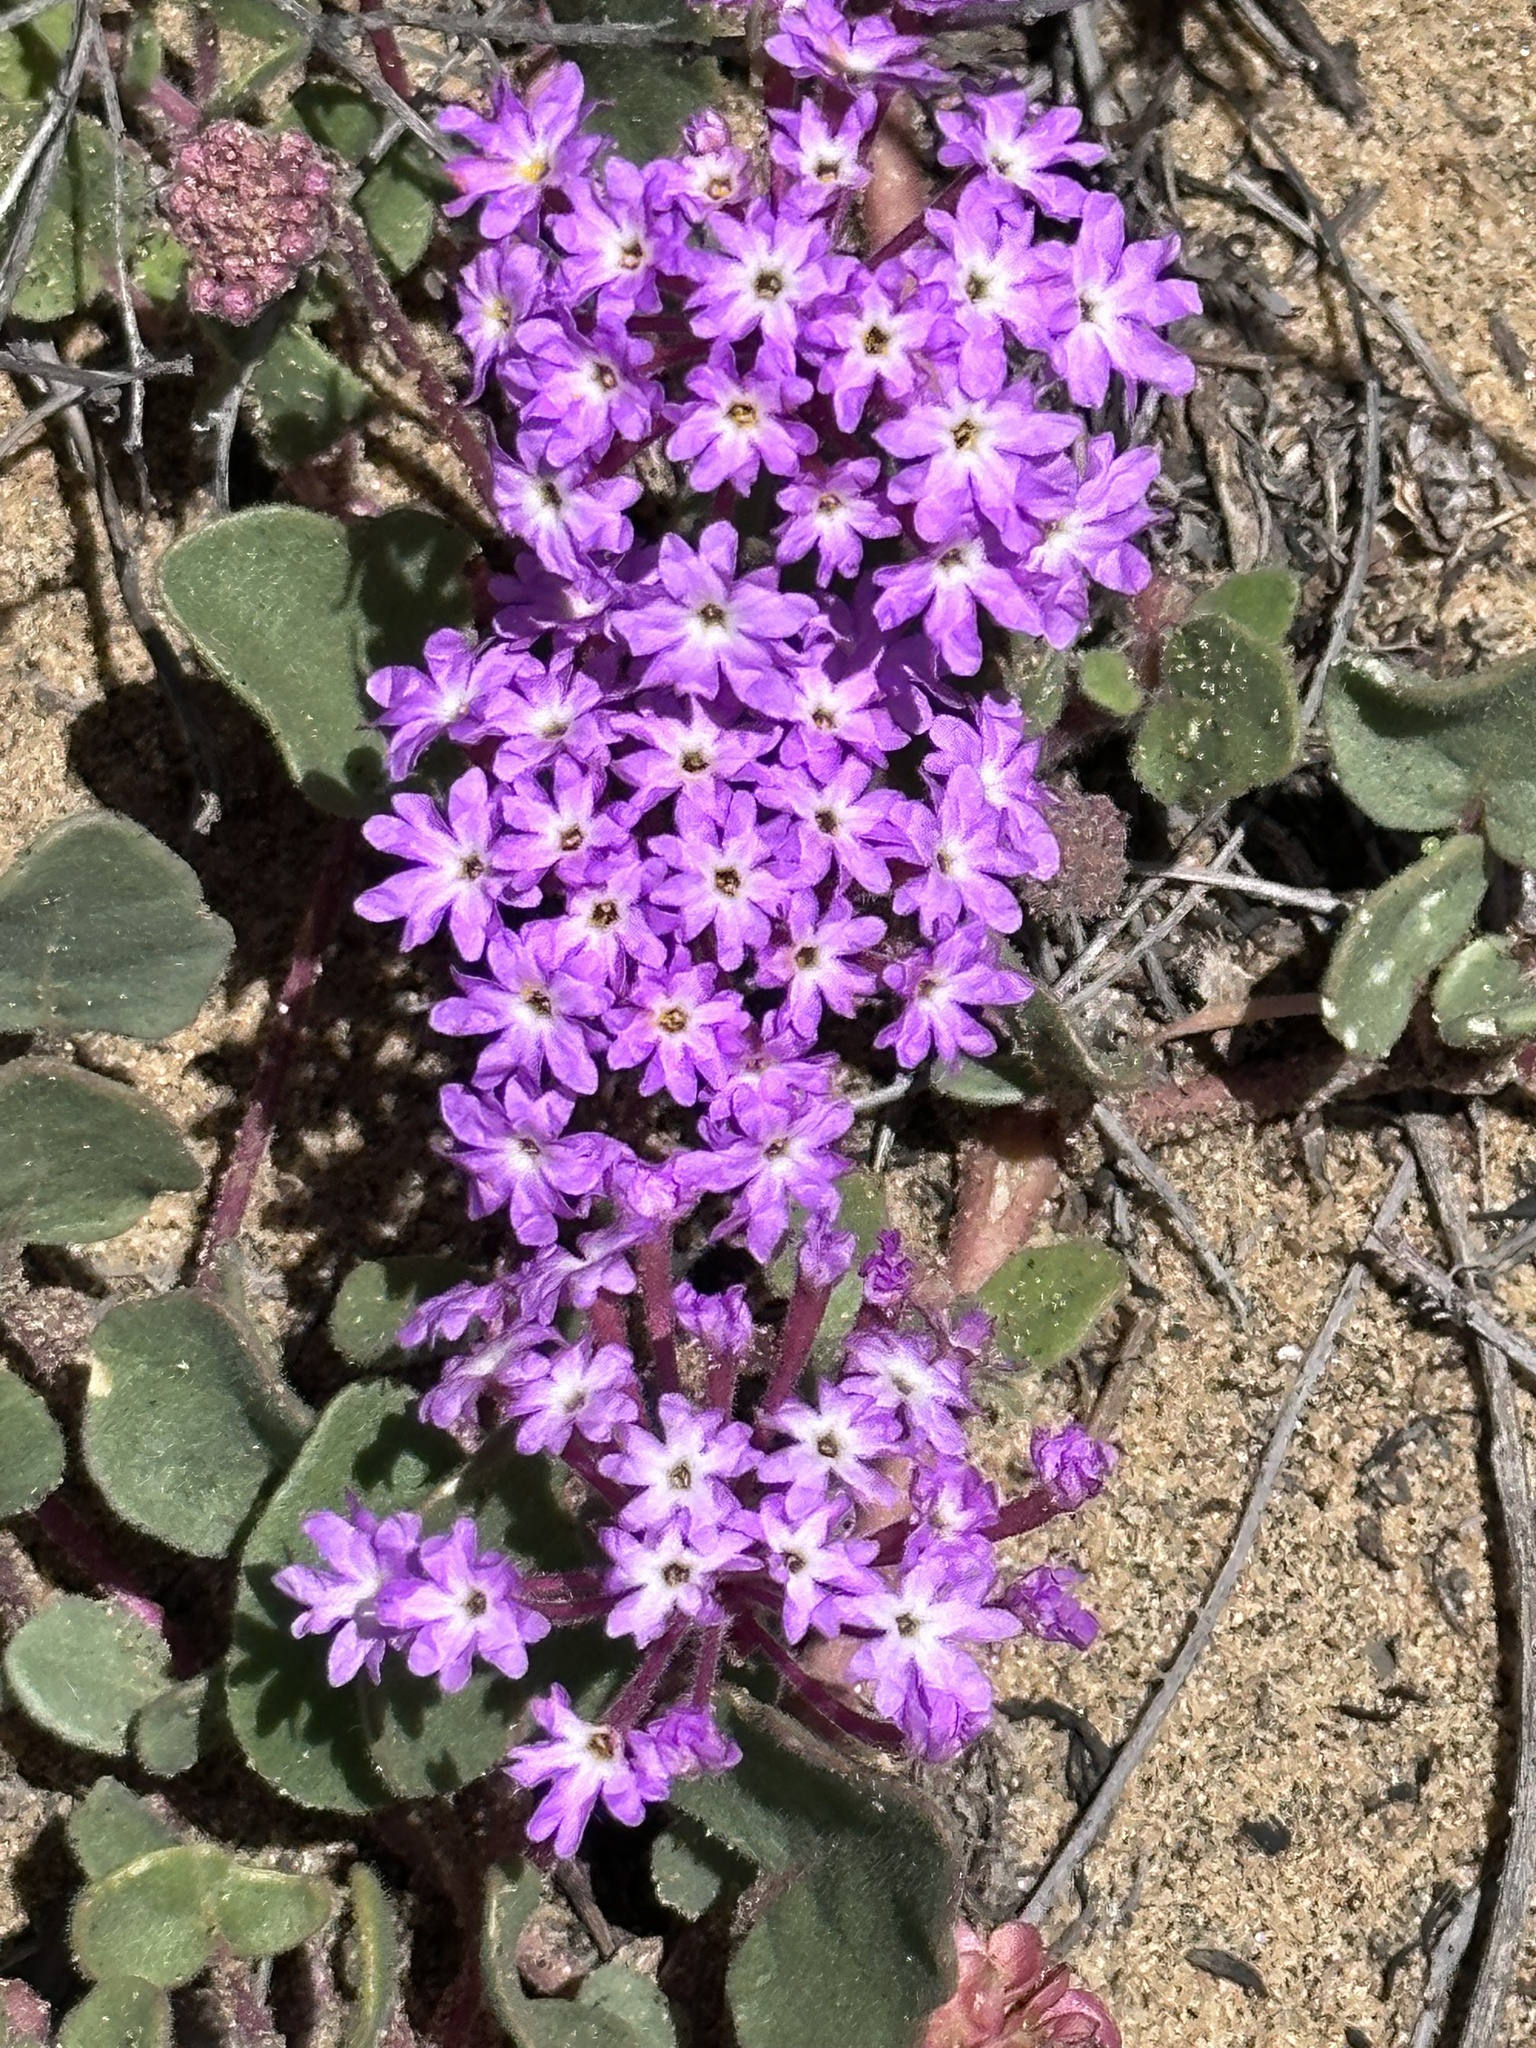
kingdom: Plantae
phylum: Tracheophyta
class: Magnoliopsida
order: Caryophyllales
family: Nyctaginaceae
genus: Abronia
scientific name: Abronia umbellata
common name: Sand-verbena
